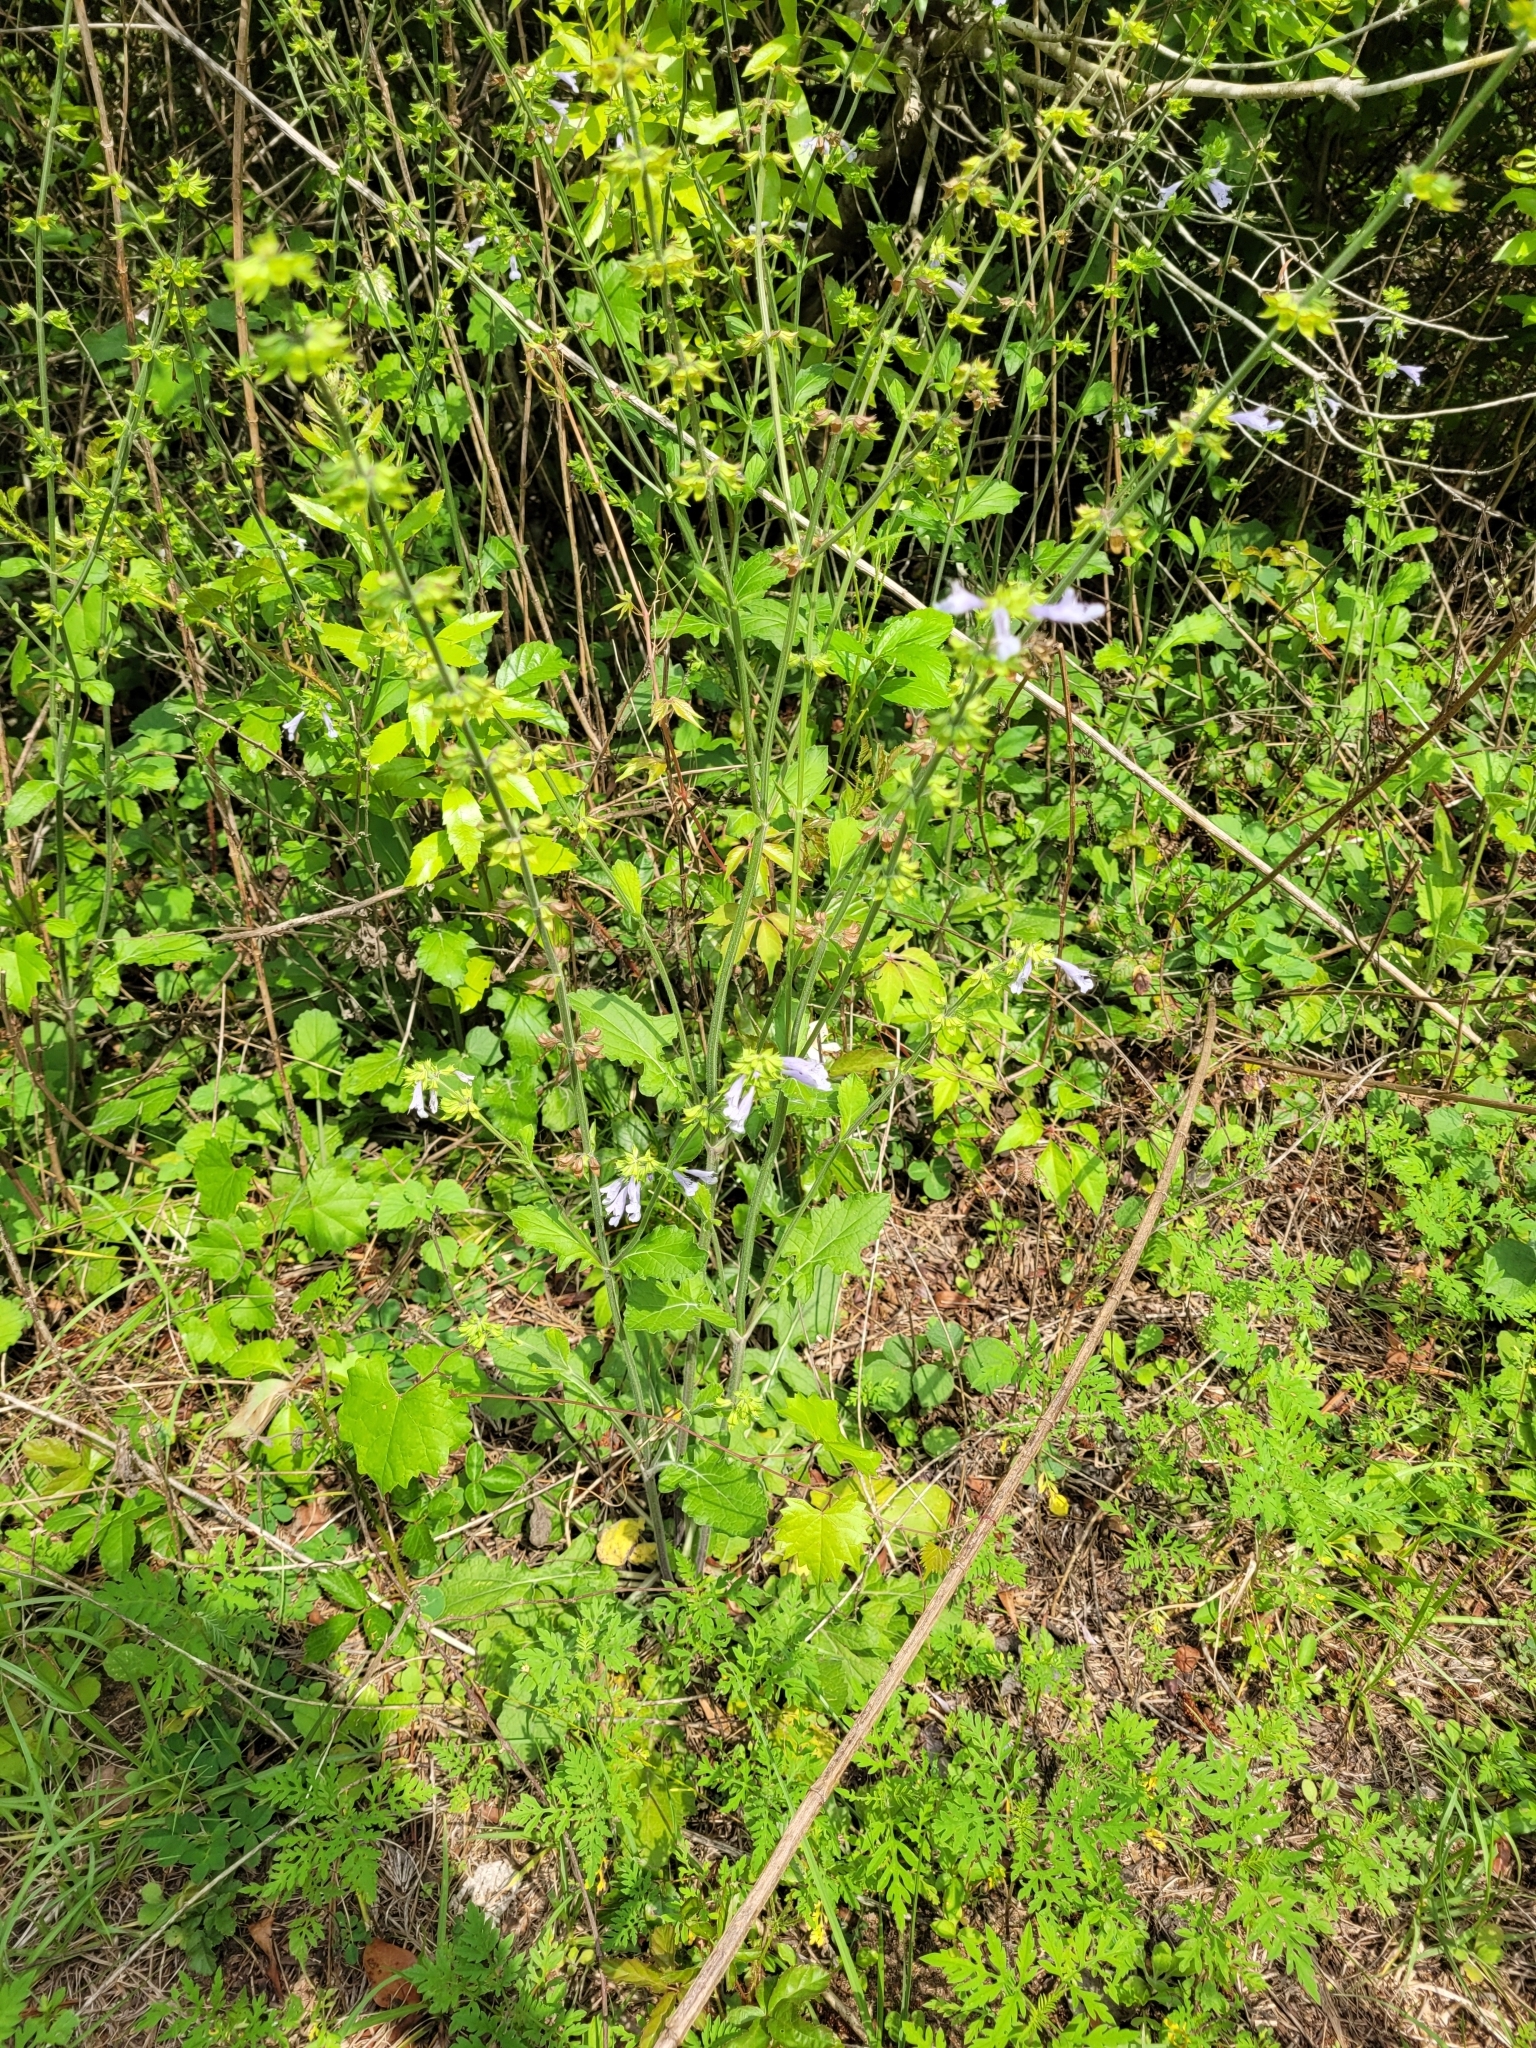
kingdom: Plantae
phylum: Tracheophyta
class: Magnoliopsida
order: Lamiales
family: Lamiaceae
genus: Salvia
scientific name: Salvia lyrata
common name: Cancerweed
